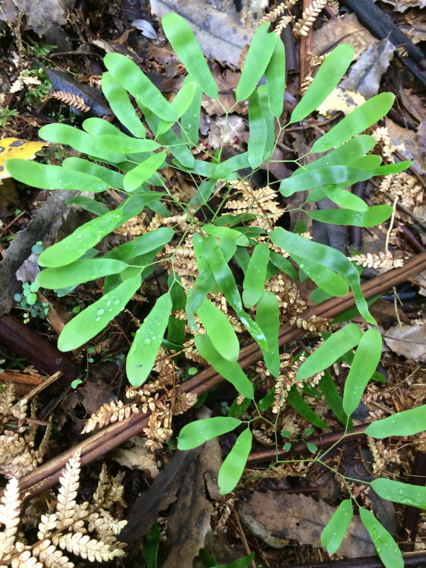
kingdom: Plantae
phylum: Tracheophyta
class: Polypodiopsida
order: Schizaeales
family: Lygodiaceae
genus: Lygodium
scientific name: Lygodium articulatum
